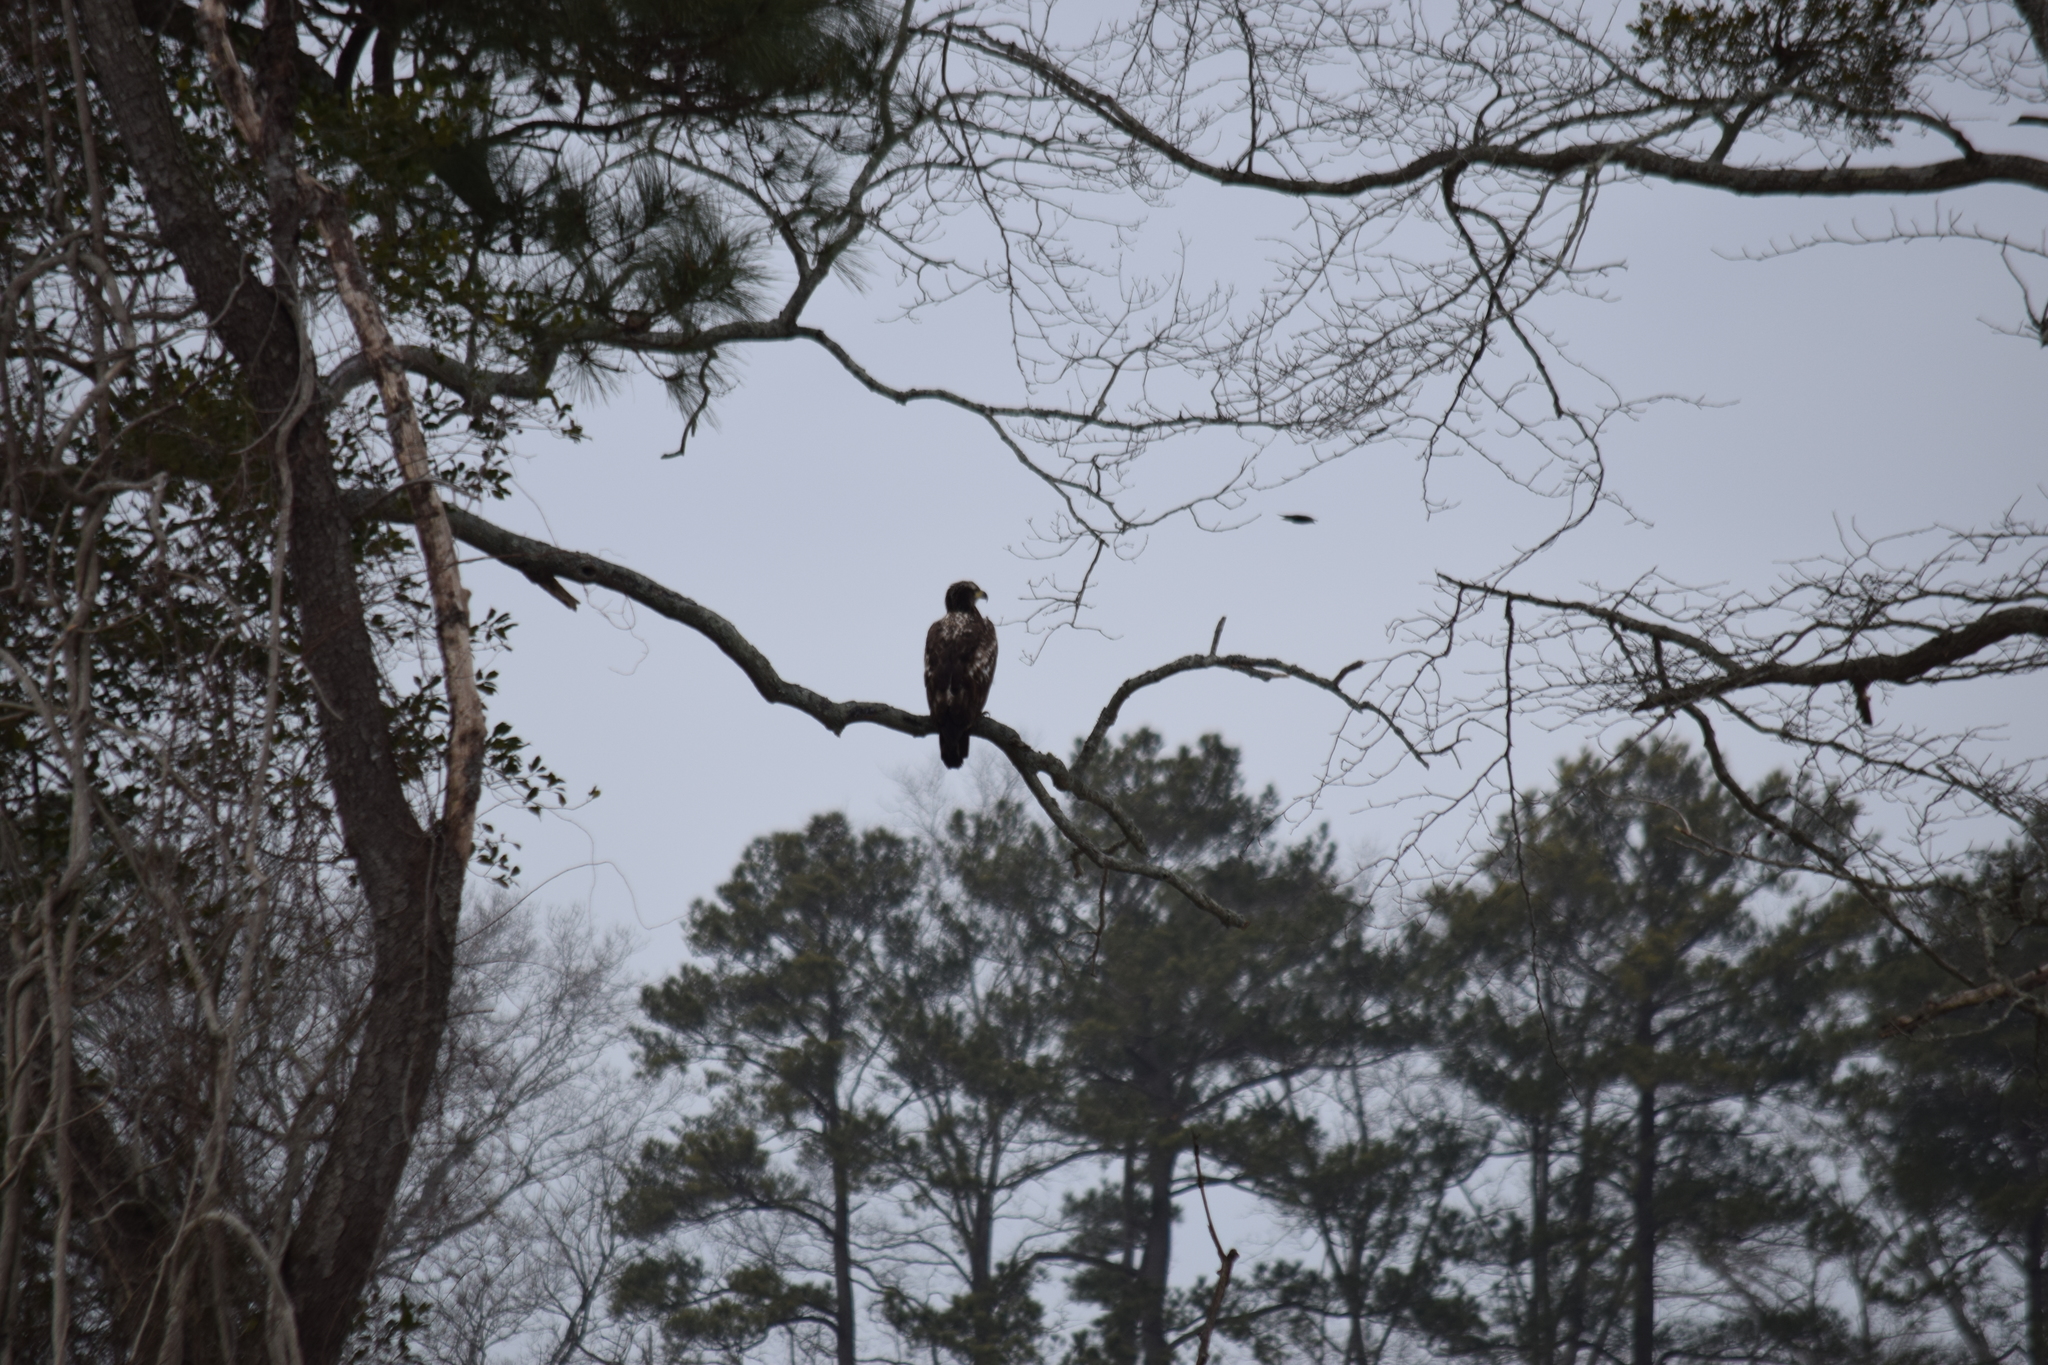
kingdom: Animalia
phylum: Chordata
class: Aves
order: Accipitriformes
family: Accipitridae
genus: Haliaeetus
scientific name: Haliaeetus leucocephalus
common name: Bald eagle
